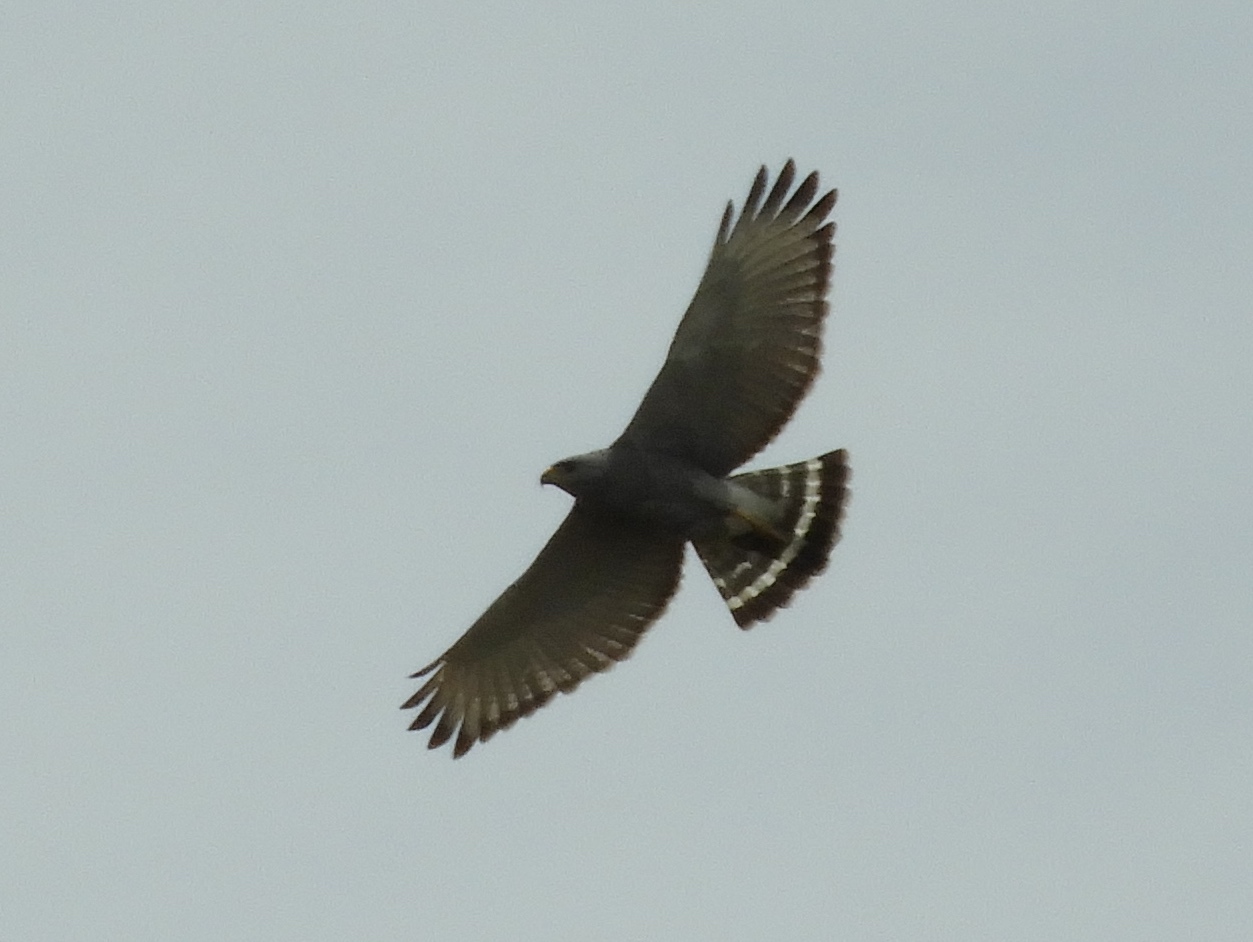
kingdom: Animalia
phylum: Chordata
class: Aves
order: Accipitriformes
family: Accipitridae
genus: Buteo
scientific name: Buteo nitidus
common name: Grey-lined hawk
